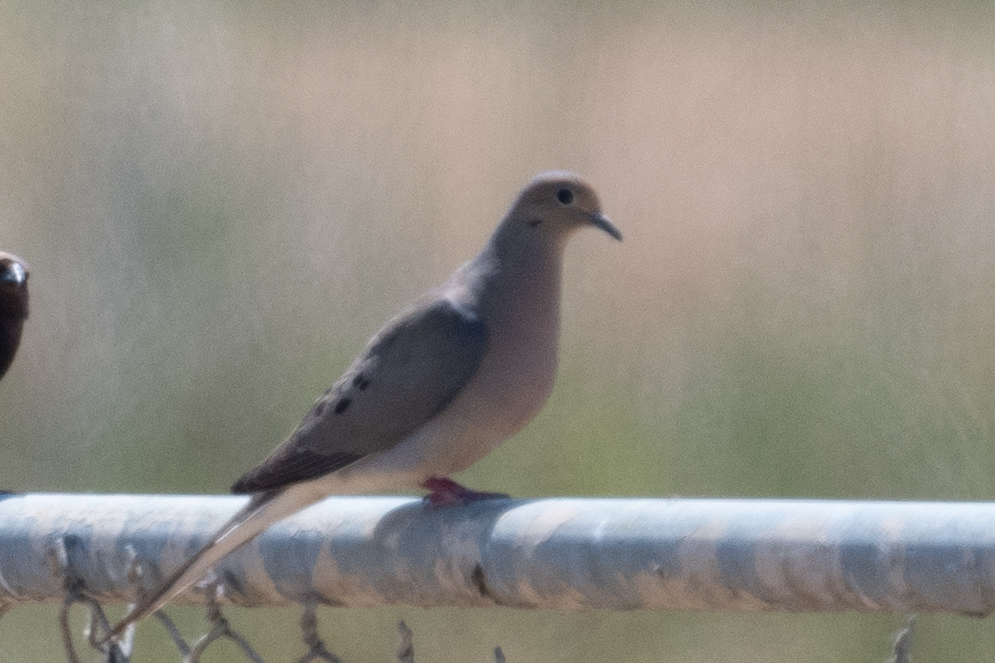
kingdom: Animalia
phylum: Chordata
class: Aves
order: Columbiformes
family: Columbidae
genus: Zenaida
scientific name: Zenaida macroura
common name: Mourning dove
